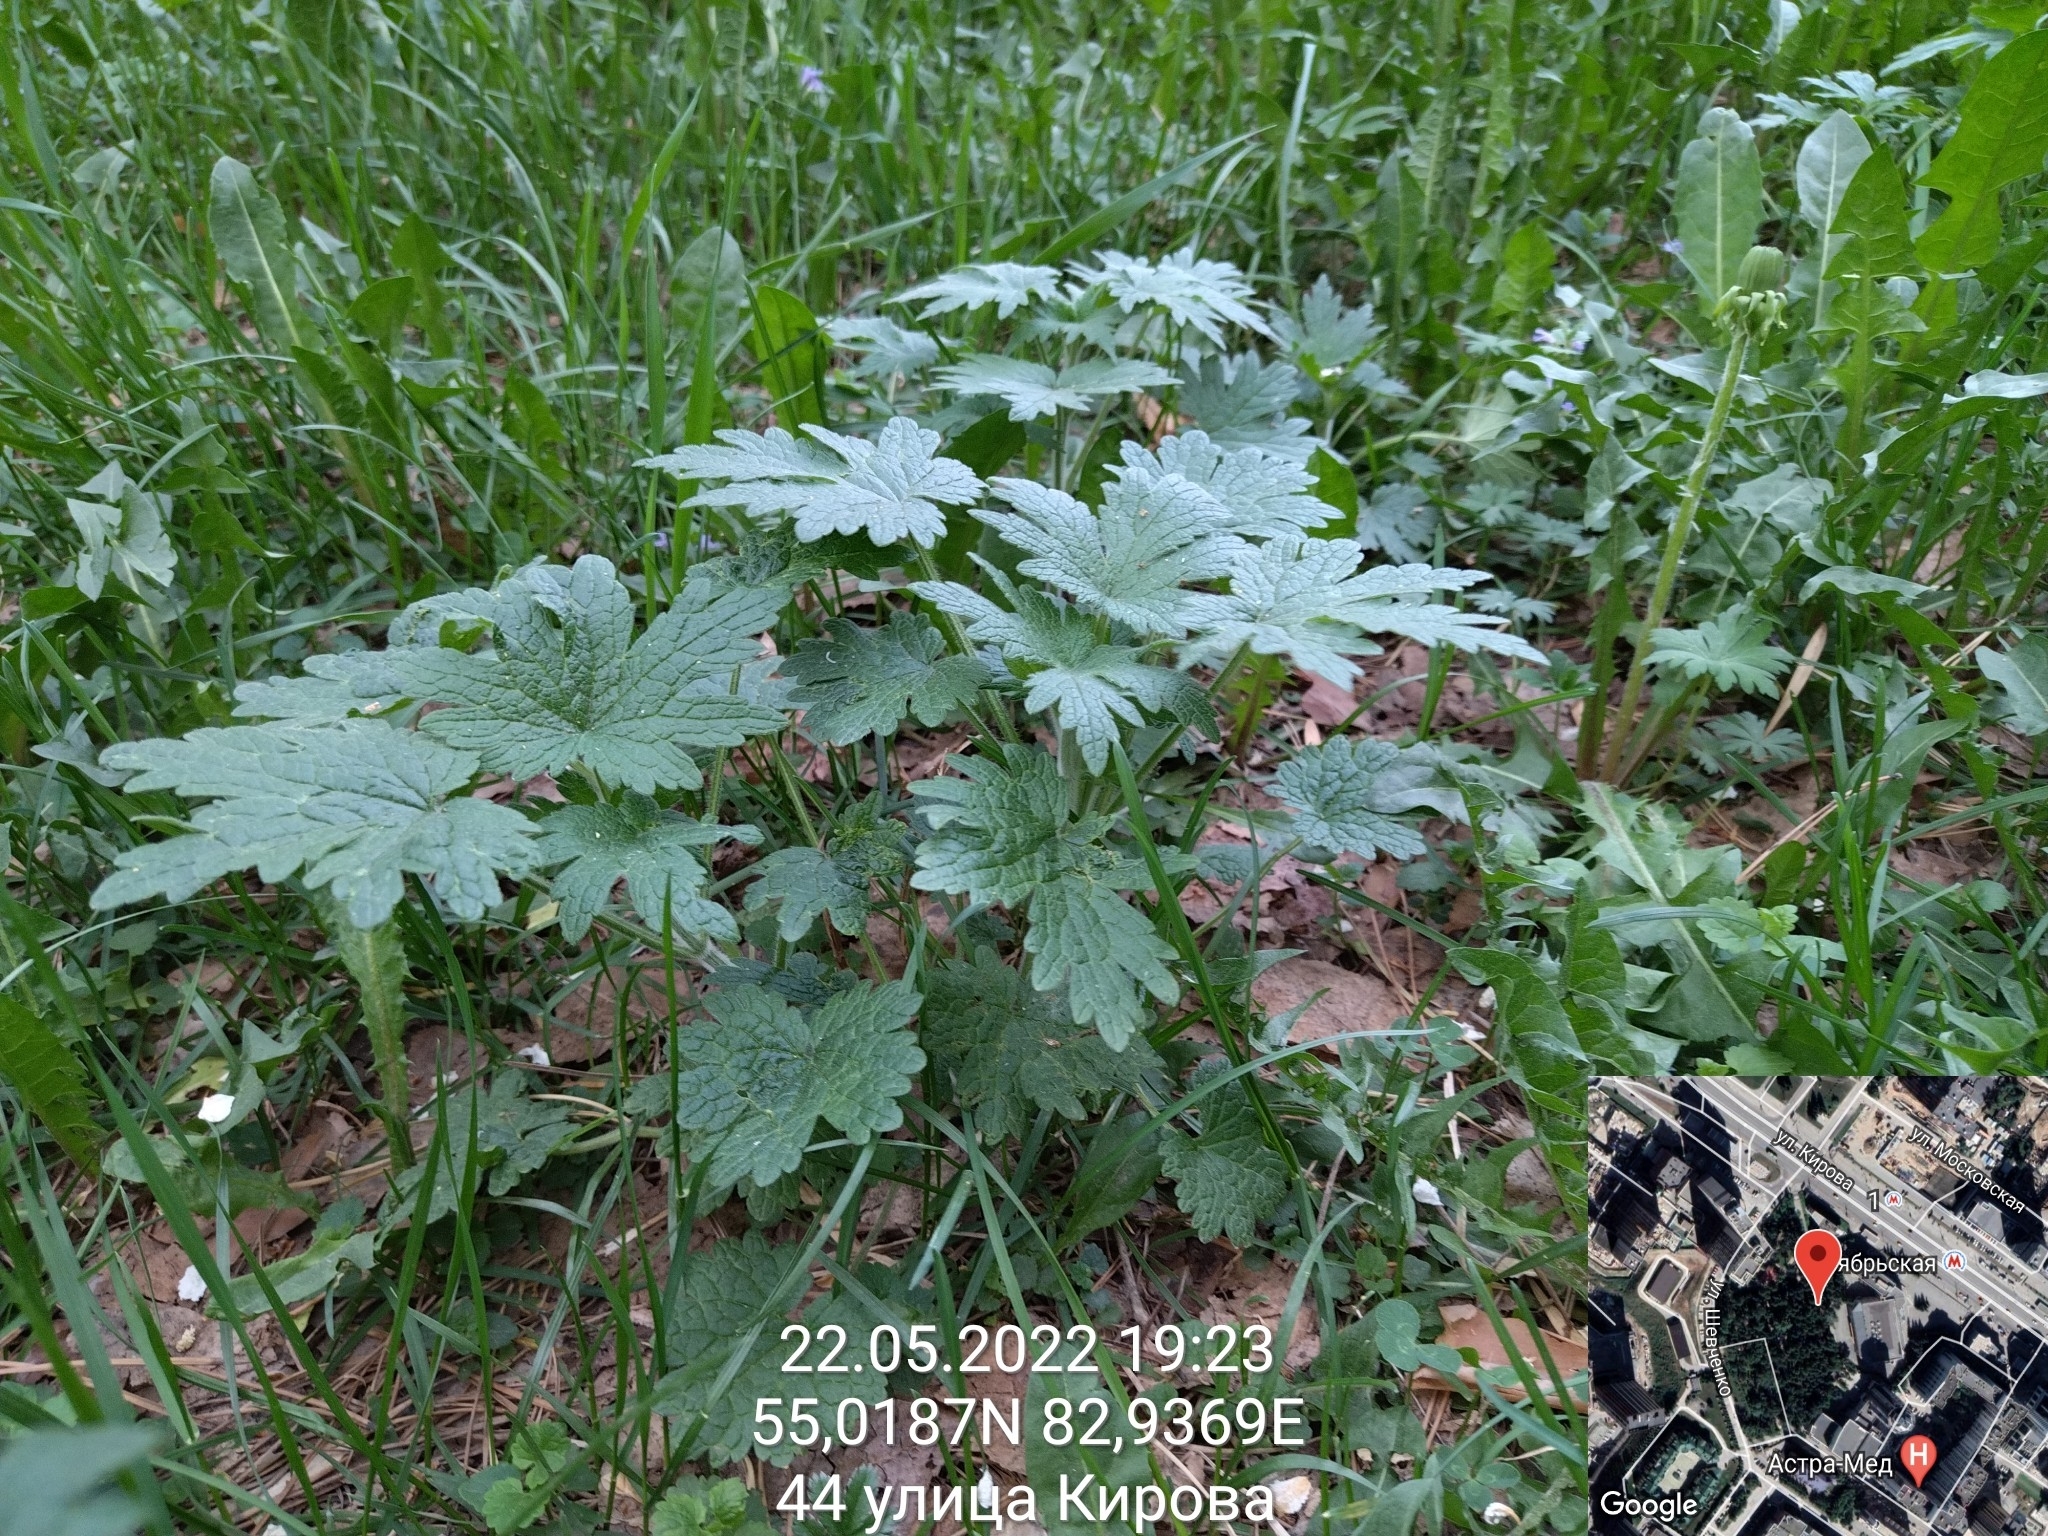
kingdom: Plantae
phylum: Tracheophyta
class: Magnoliopsida
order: Lamiales
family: Lamiaceae
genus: Leonurus
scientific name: Leonurus quinquelobatus
